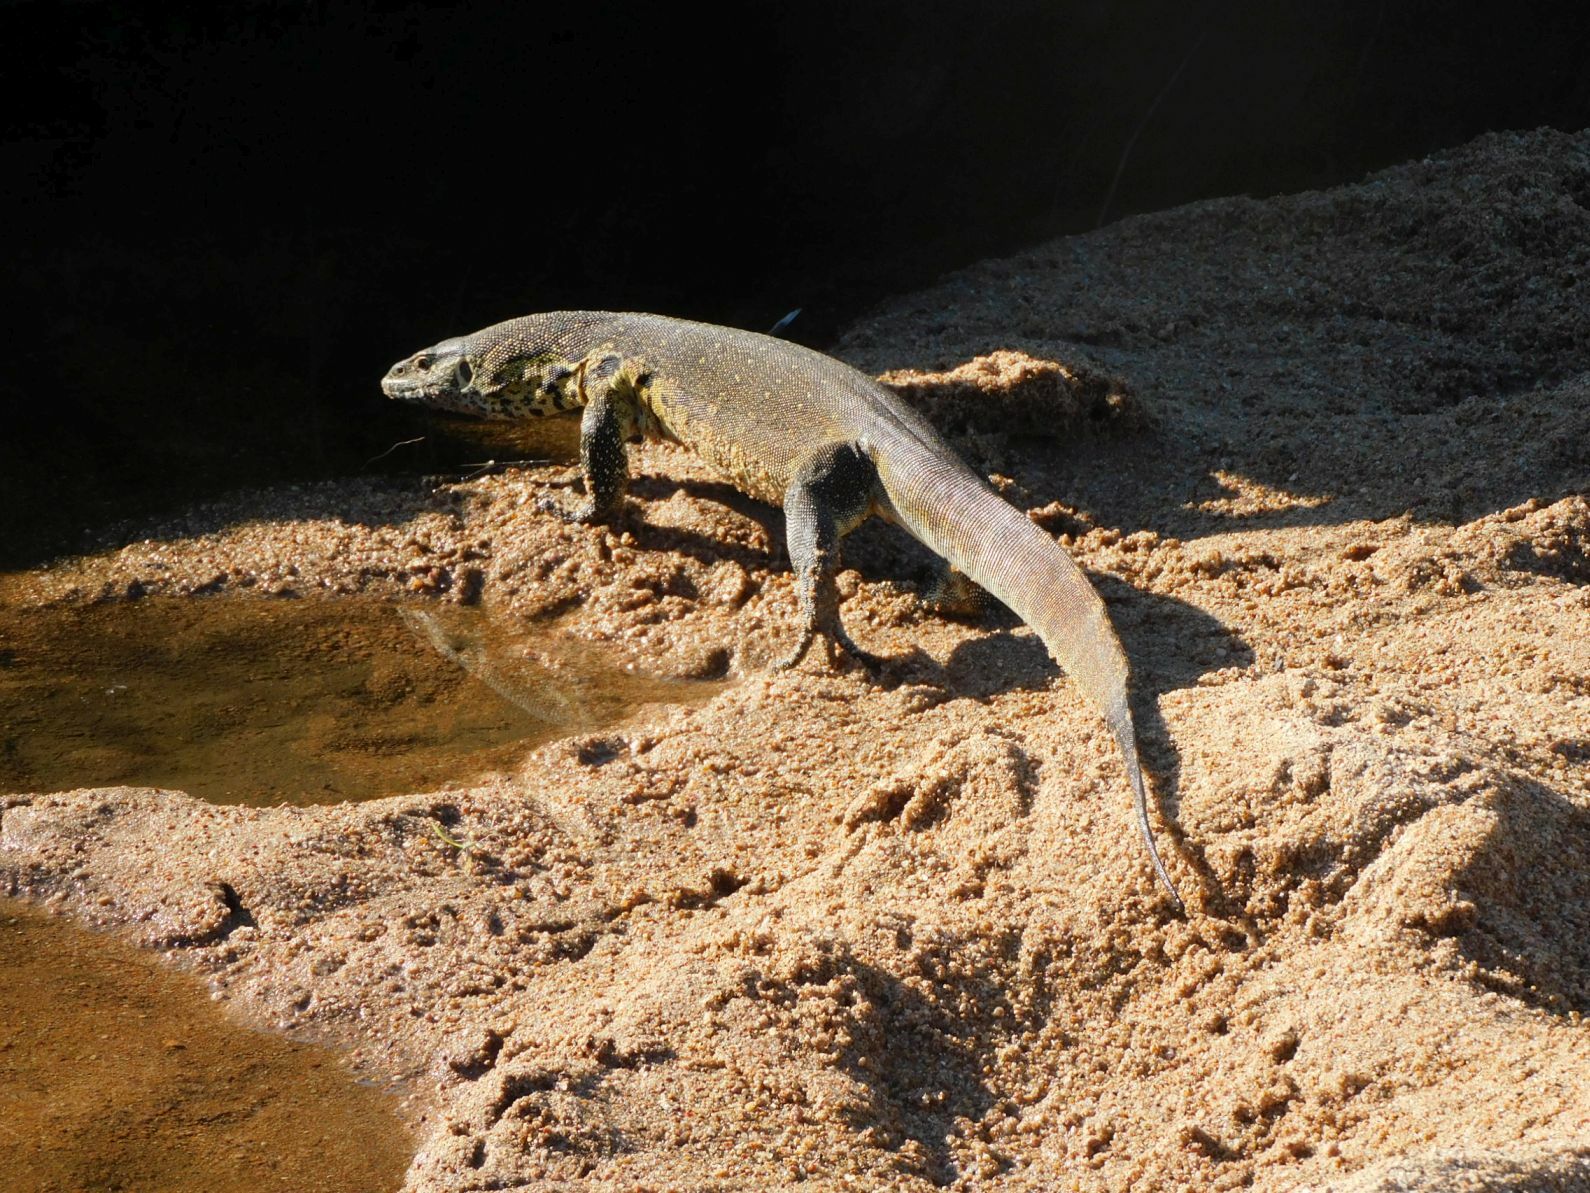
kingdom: Animalia
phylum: Chordata
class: Squamata
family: Varanidae
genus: Varanus
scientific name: Varanus niloticus
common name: Nile monitor
